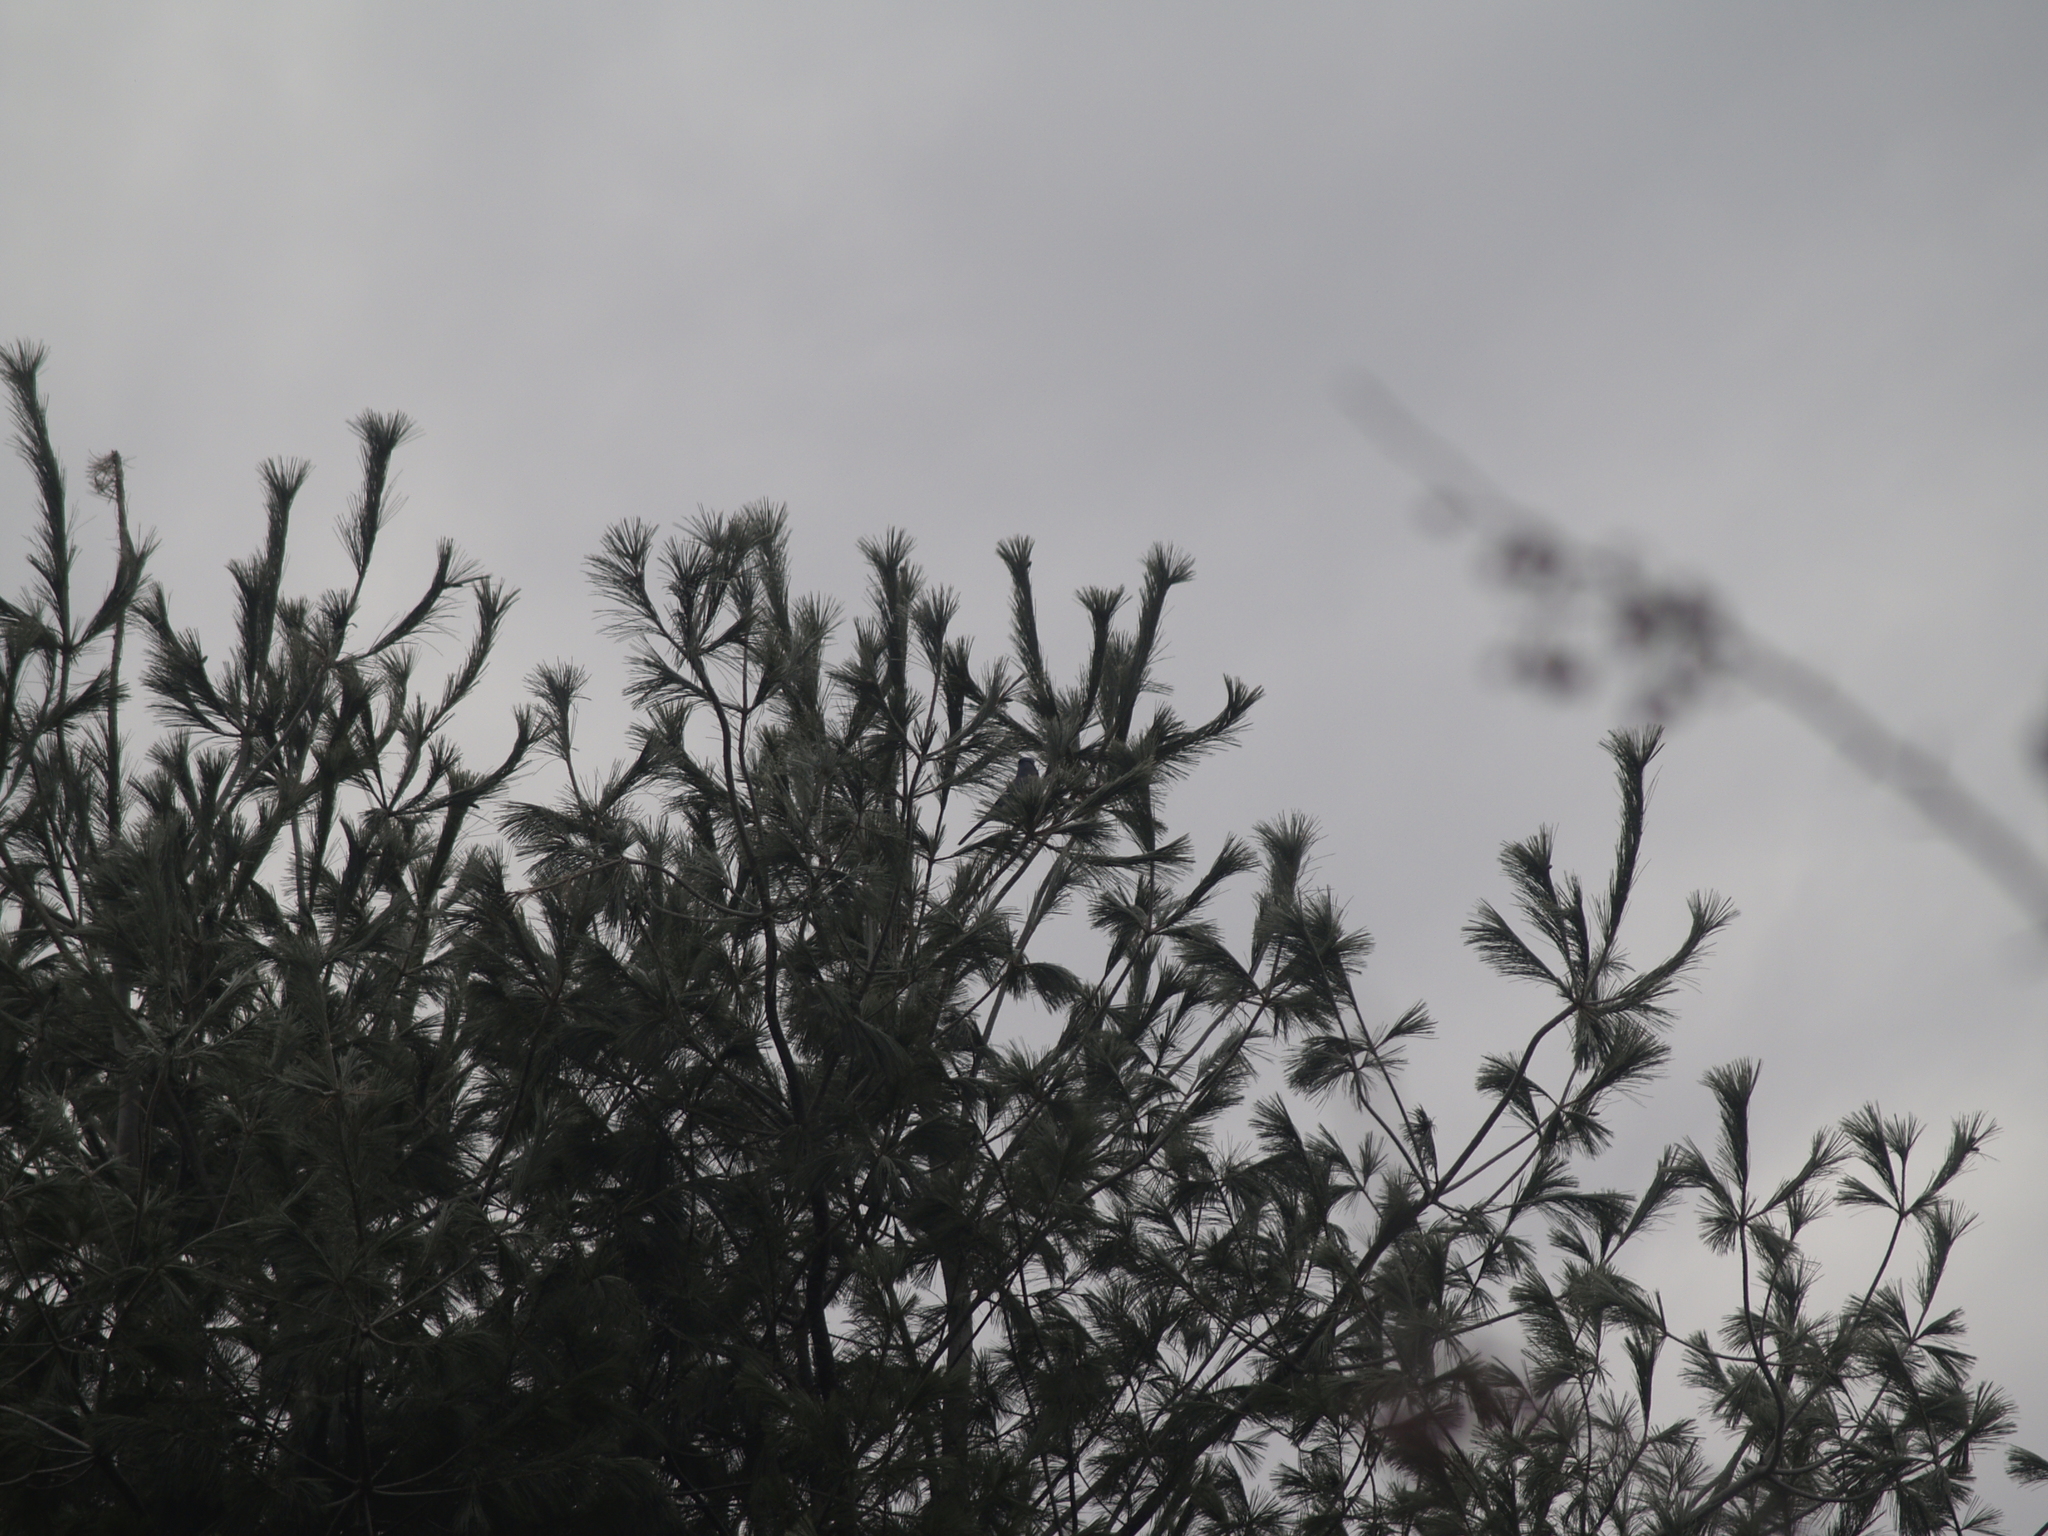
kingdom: Plantae
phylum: Tracheophyta
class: Pinopsida
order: Pinales
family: Pinaceae
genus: Pinus
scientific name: Pinus strobus
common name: Weymouth pine
